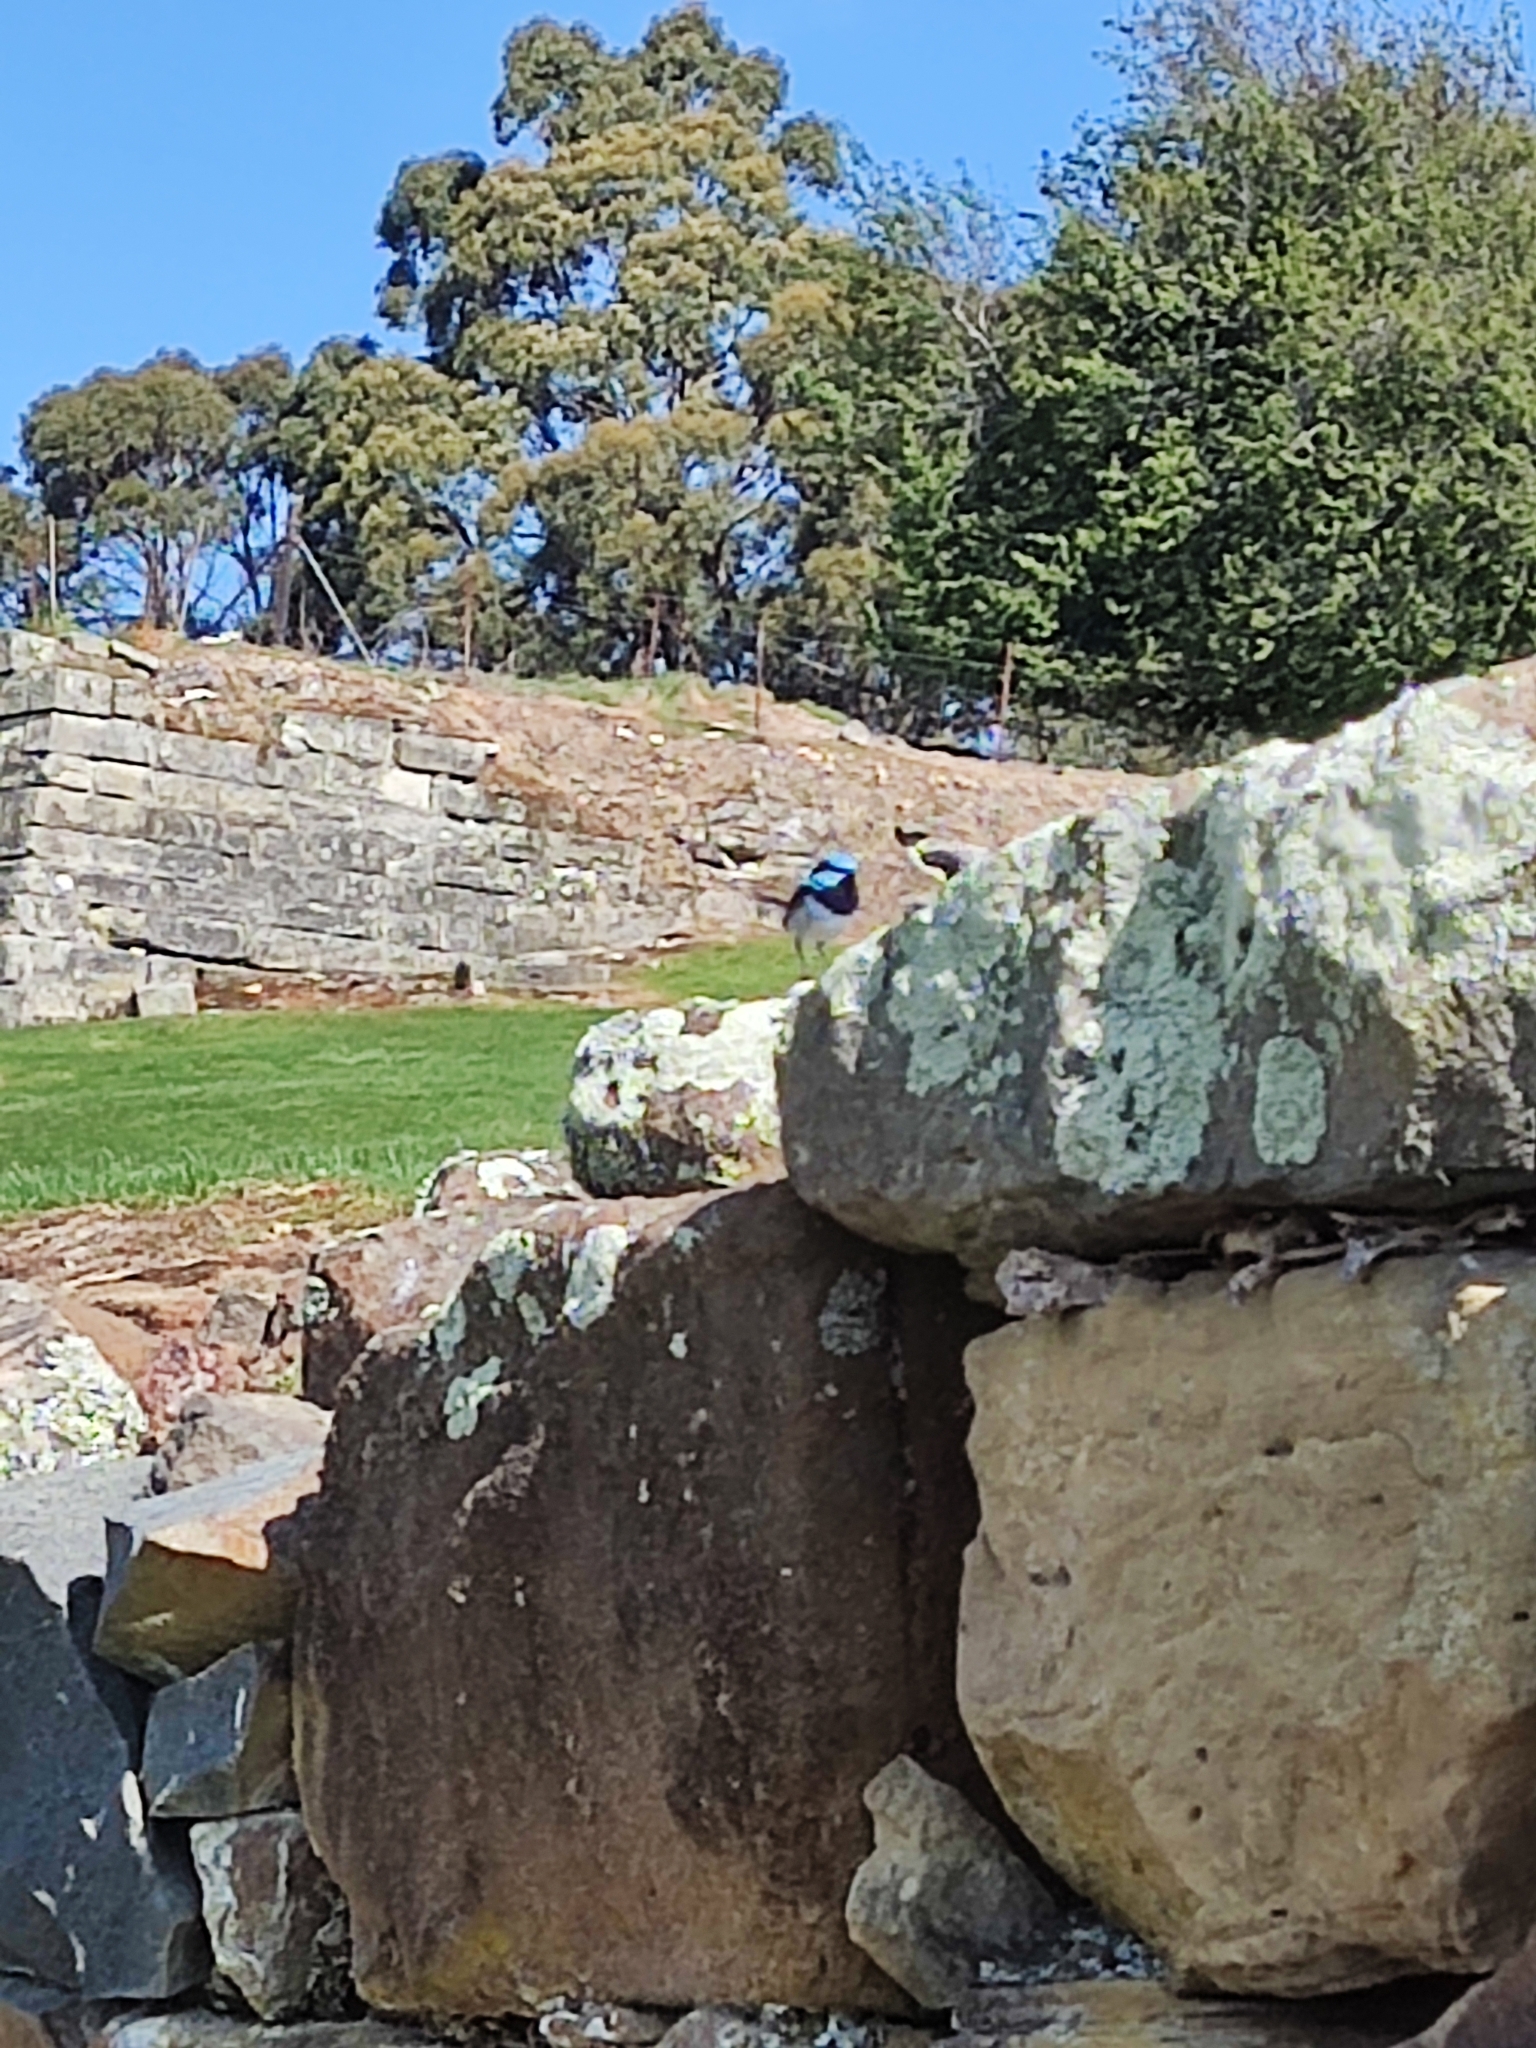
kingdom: Animalia
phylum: Chordata
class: Aves
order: Passeriformes
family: Maluridae
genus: Malurus
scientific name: Malurus cyaneus
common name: Superb fairywren
